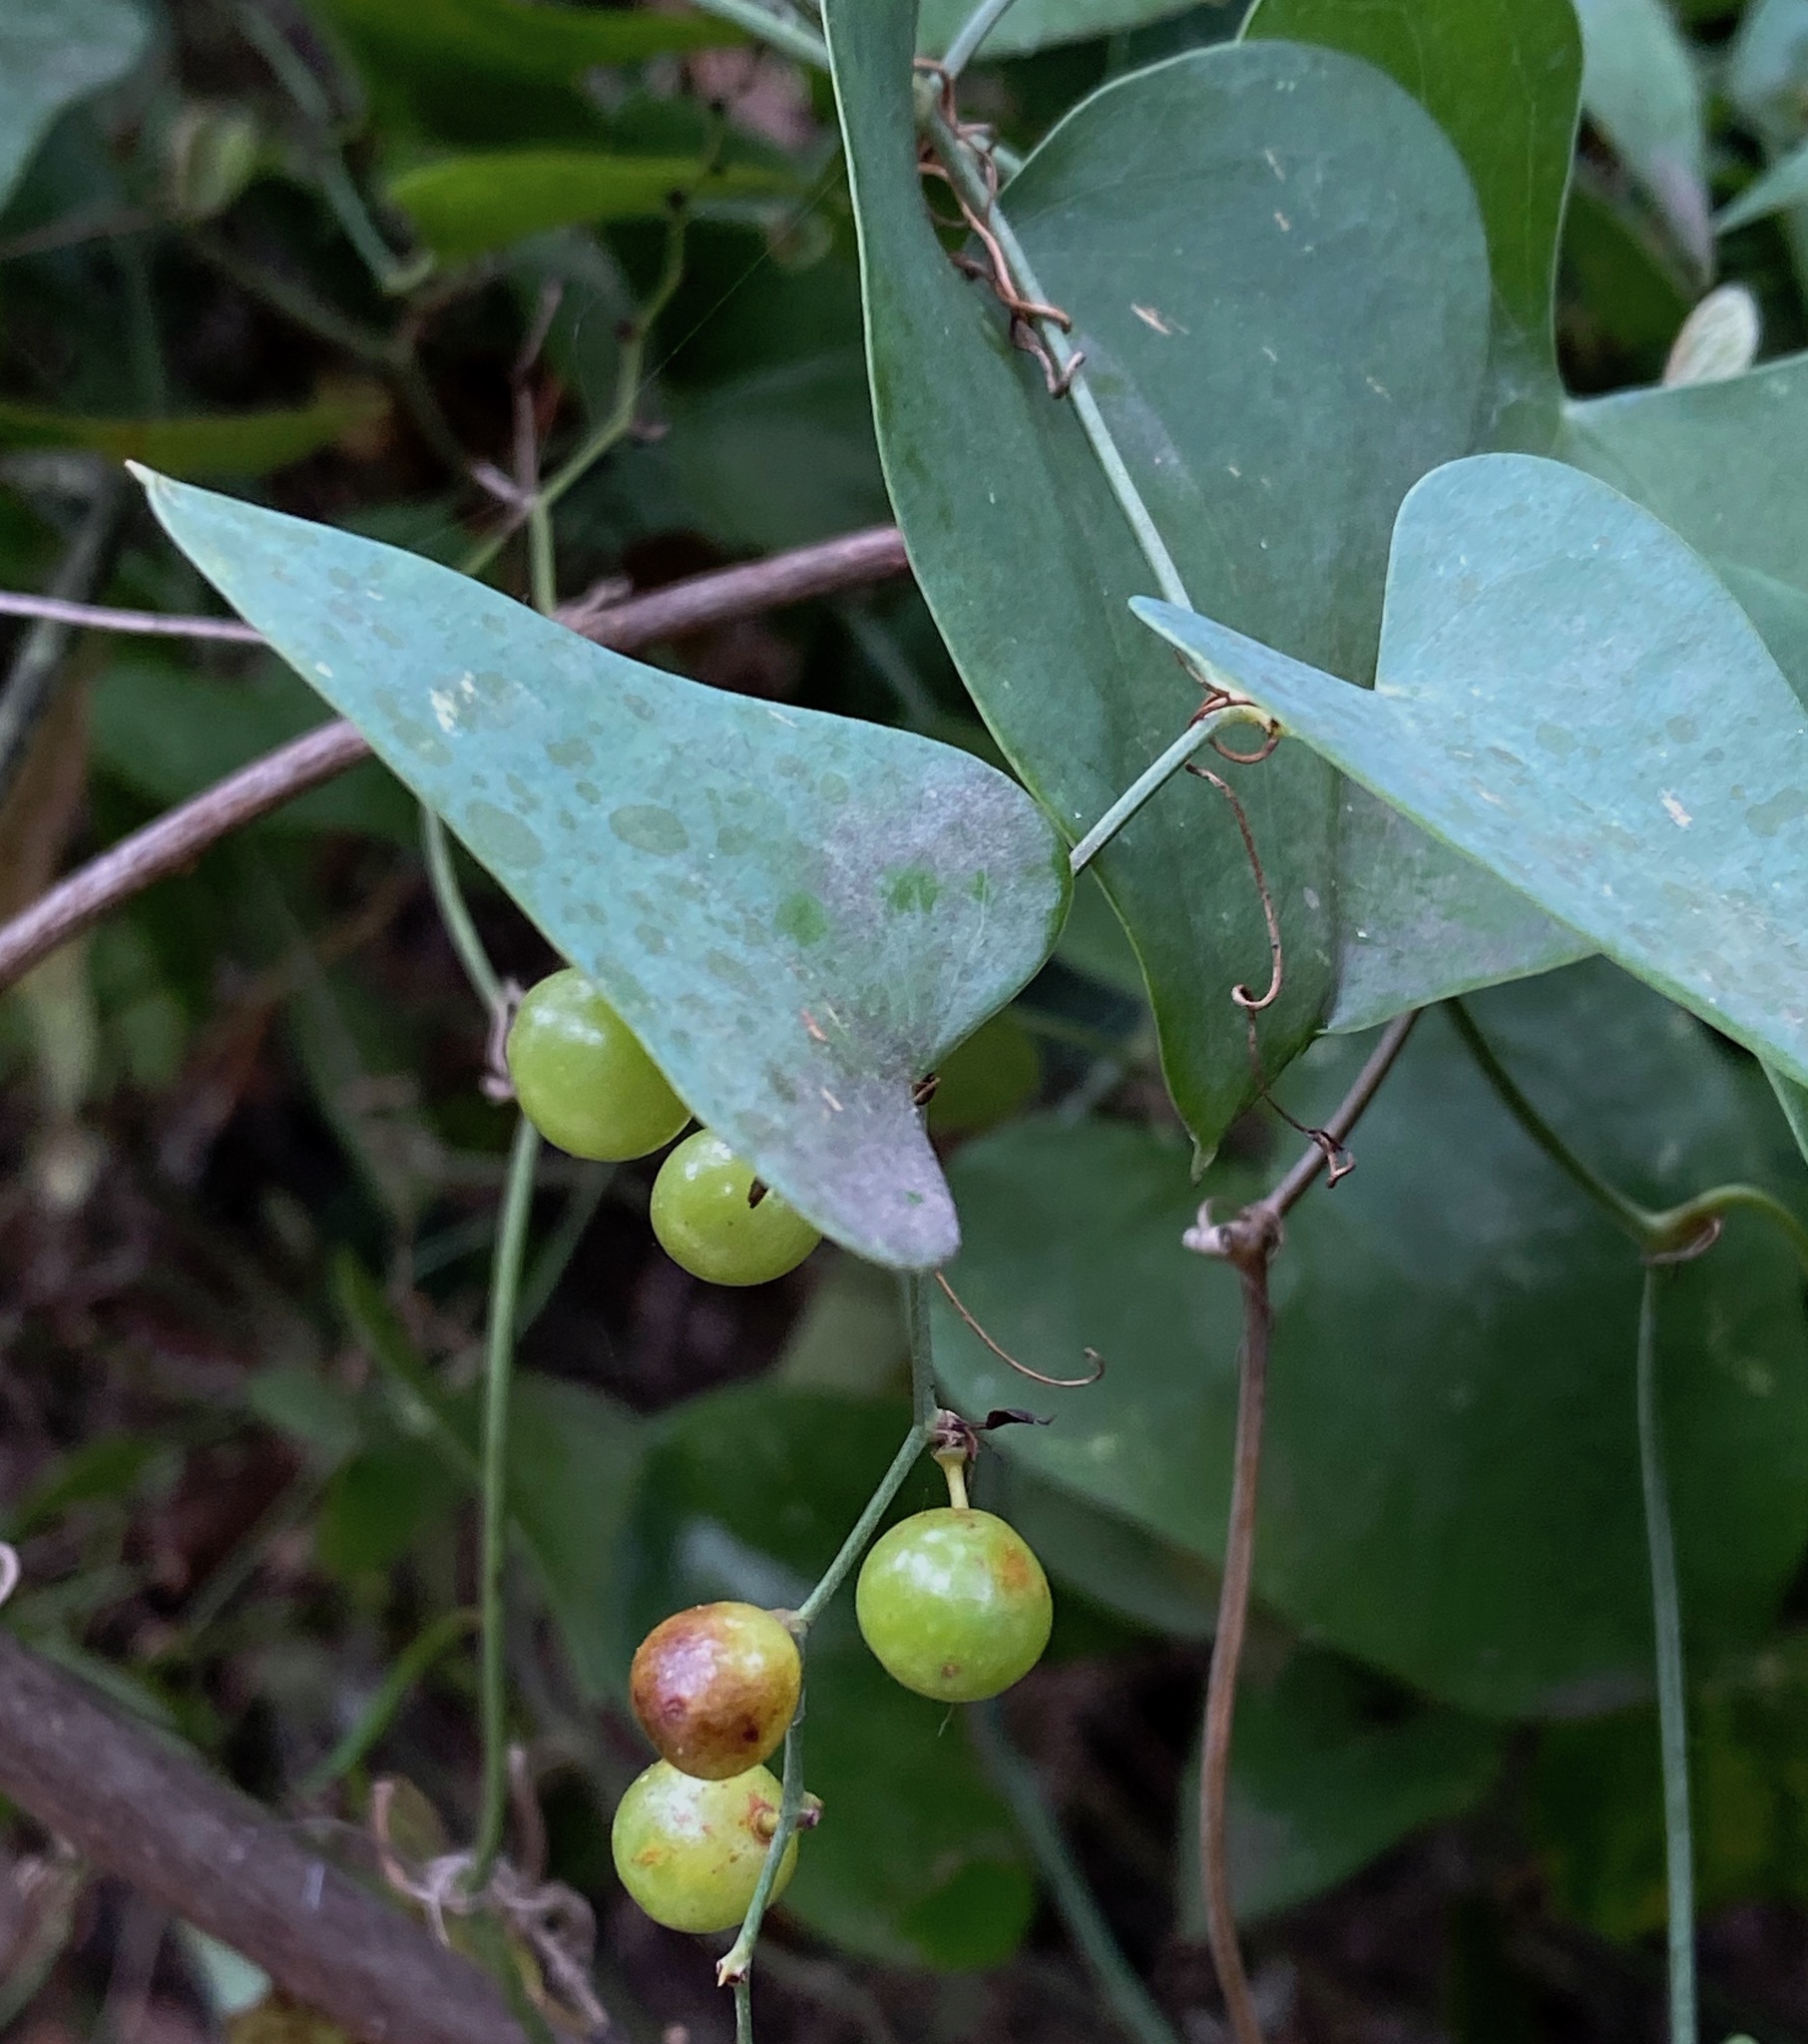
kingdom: Plantae
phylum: Tracheophyta
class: Liliopsida
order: Liliales
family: Smilacaceae
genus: Smilax
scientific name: Smilax aspera
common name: Common smilax
